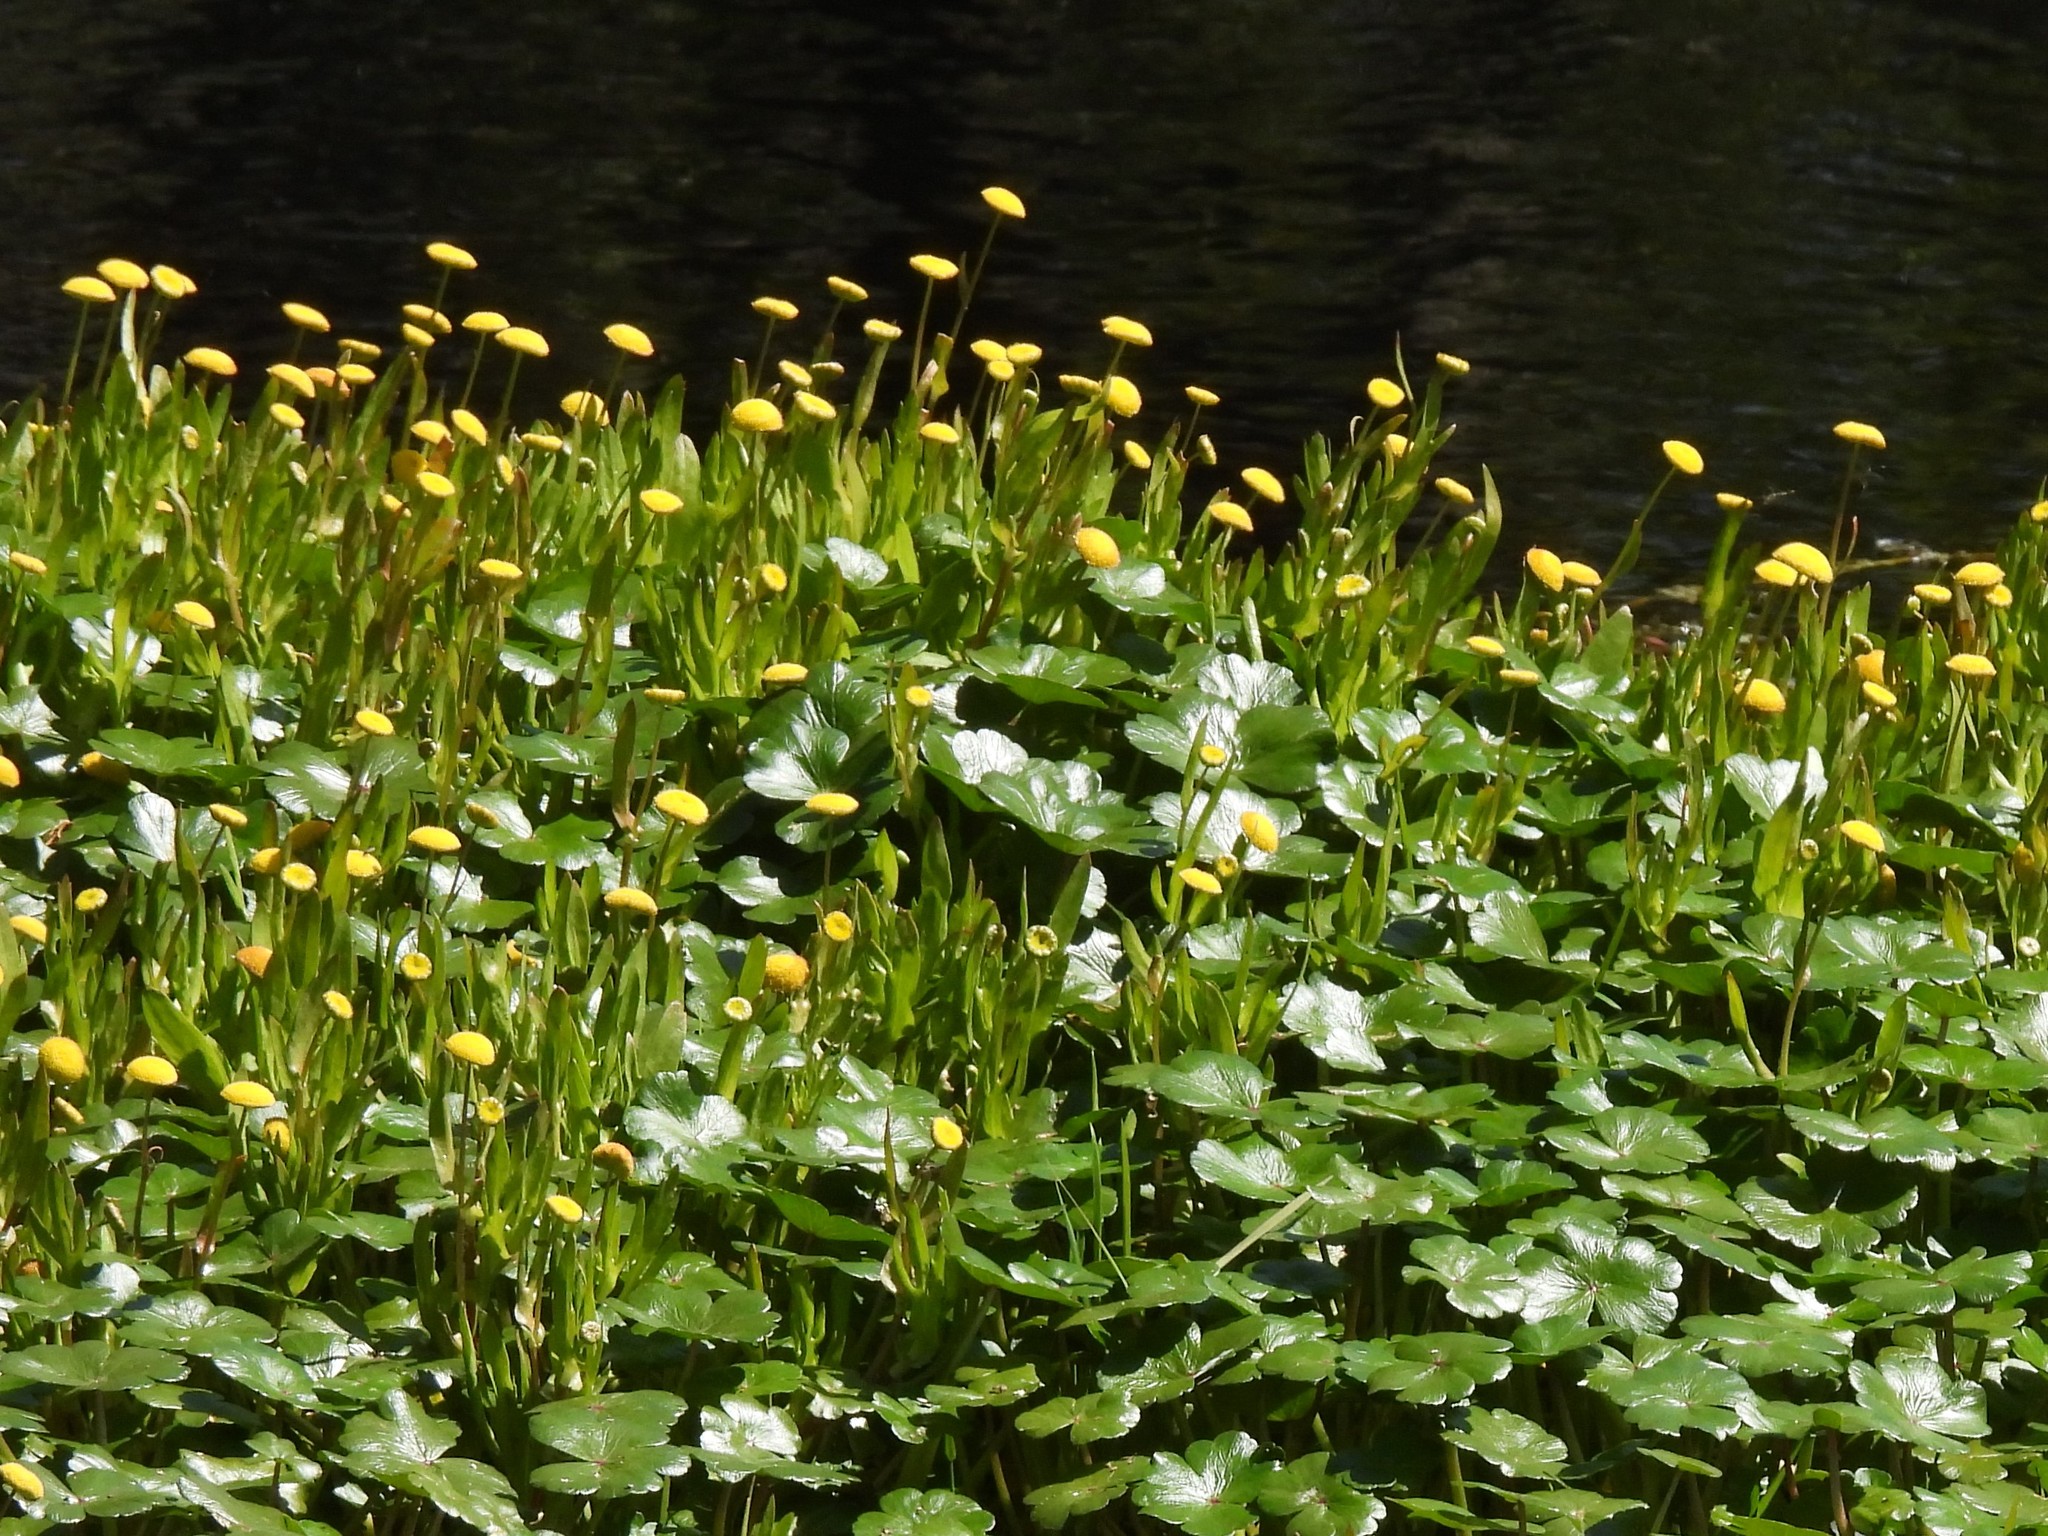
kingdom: Plantae
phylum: Tracheophyta
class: Magnoliopsida
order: Apiales
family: Araliaceae
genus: Hydrocotyle
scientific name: Hydrocotyle ranunculoides
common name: Floating pennywort
